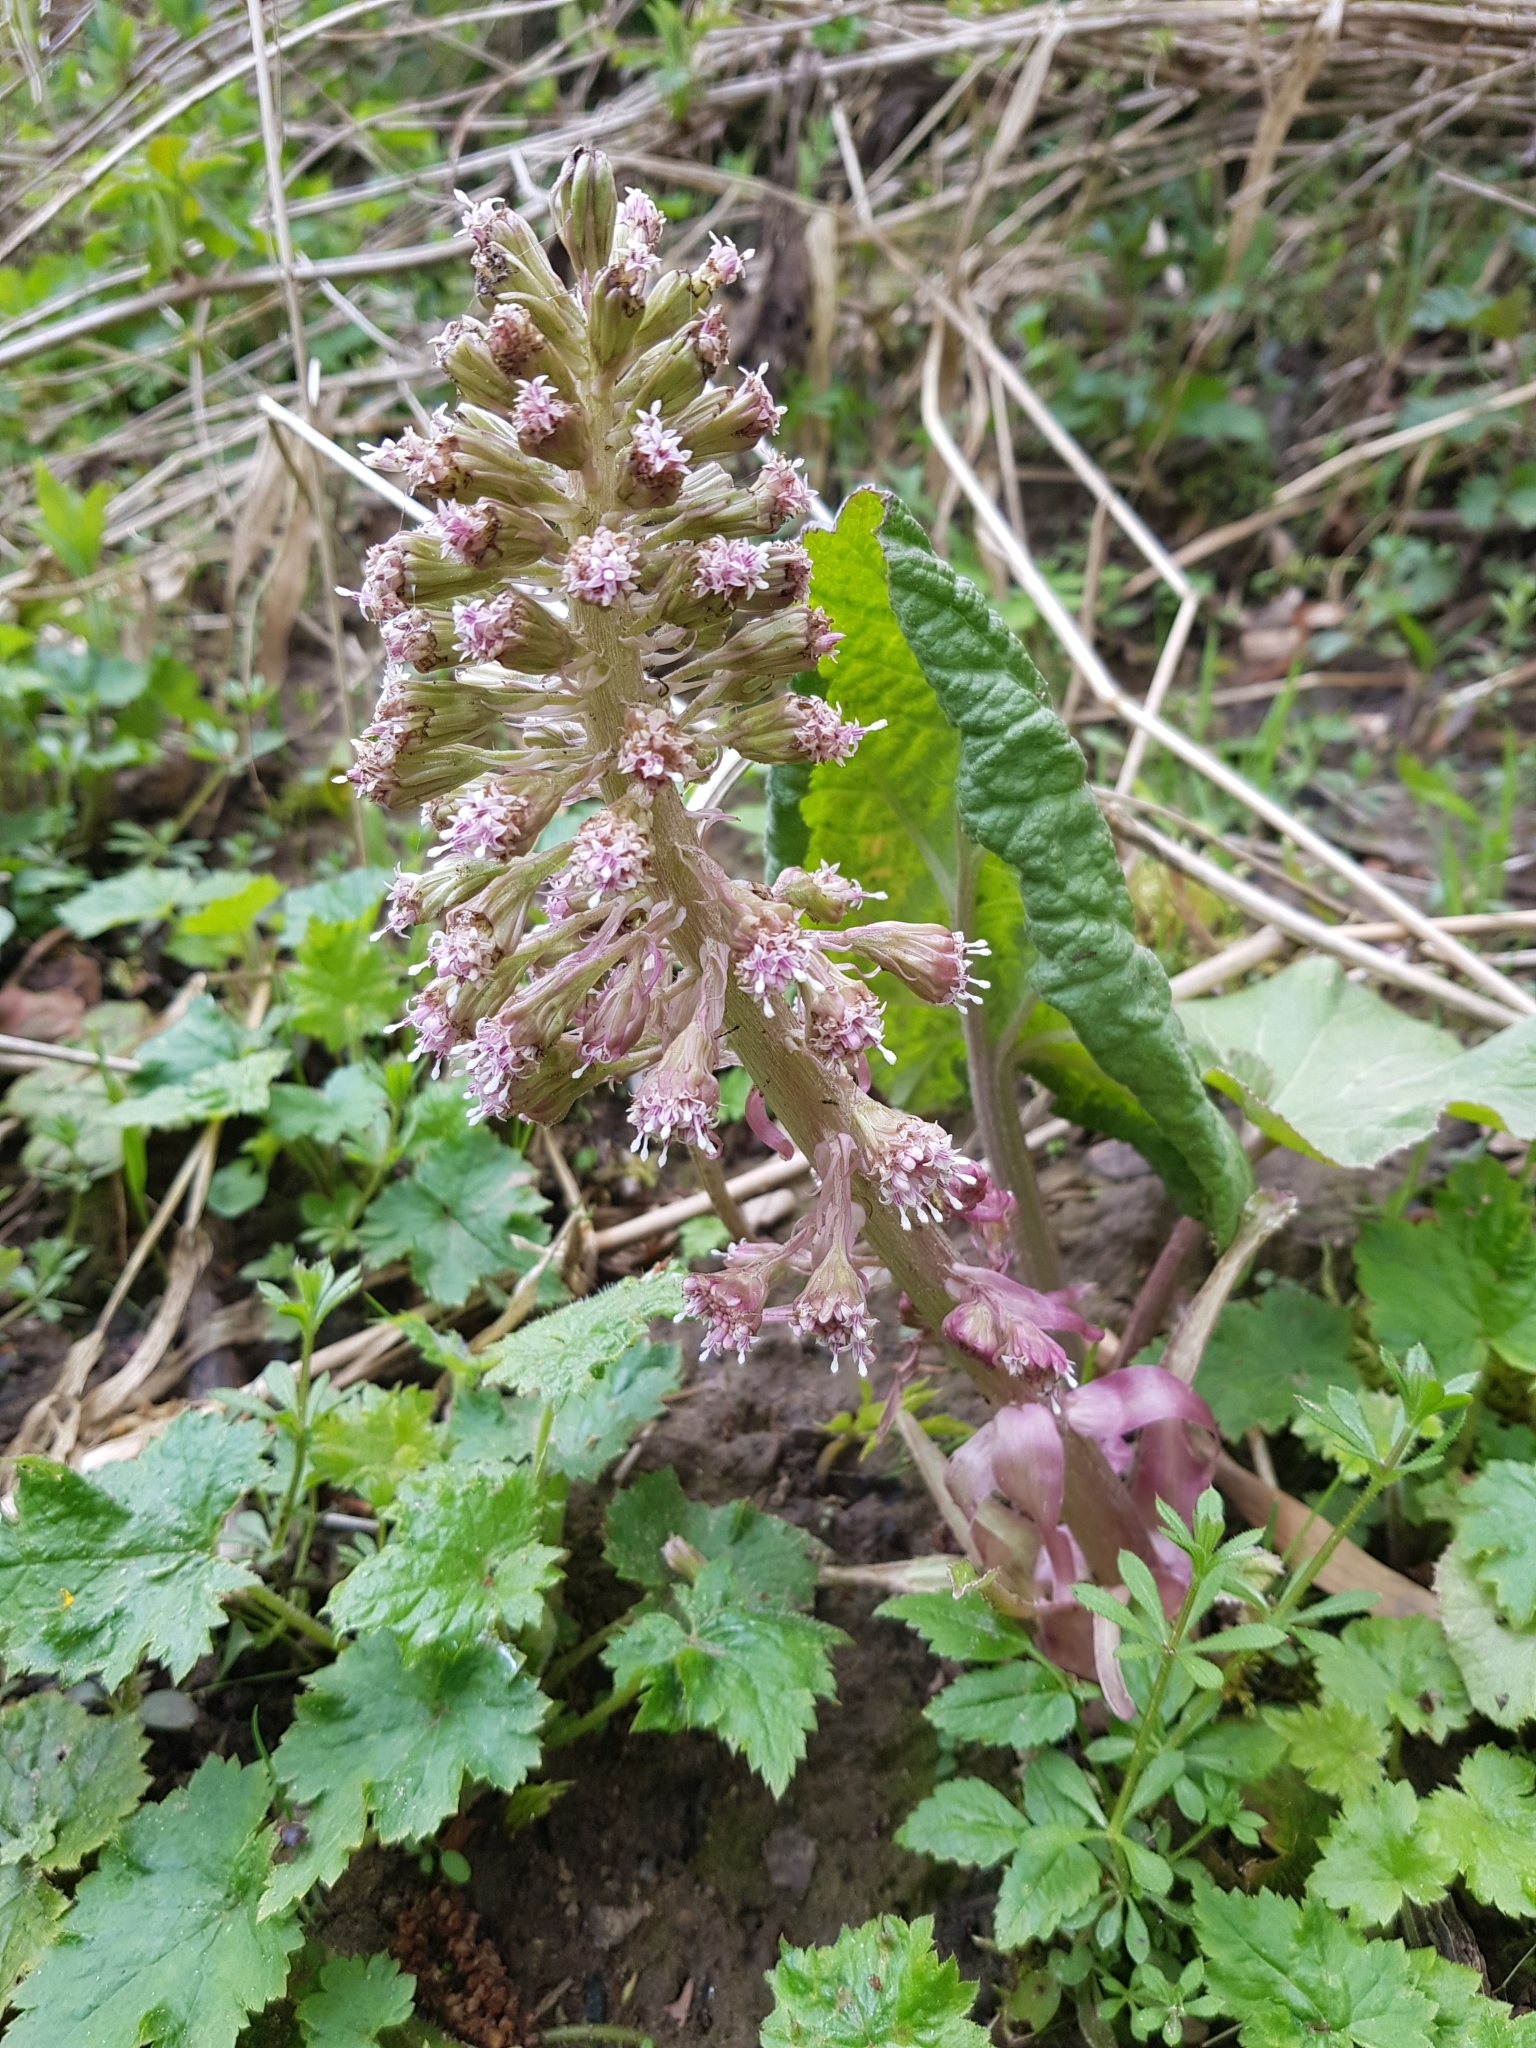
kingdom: Plantae
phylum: Tracheophyta
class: Magnoliopsida
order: Asterales
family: Asteraceae
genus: Petasites
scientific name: Petasites hybridus
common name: Butterbur
